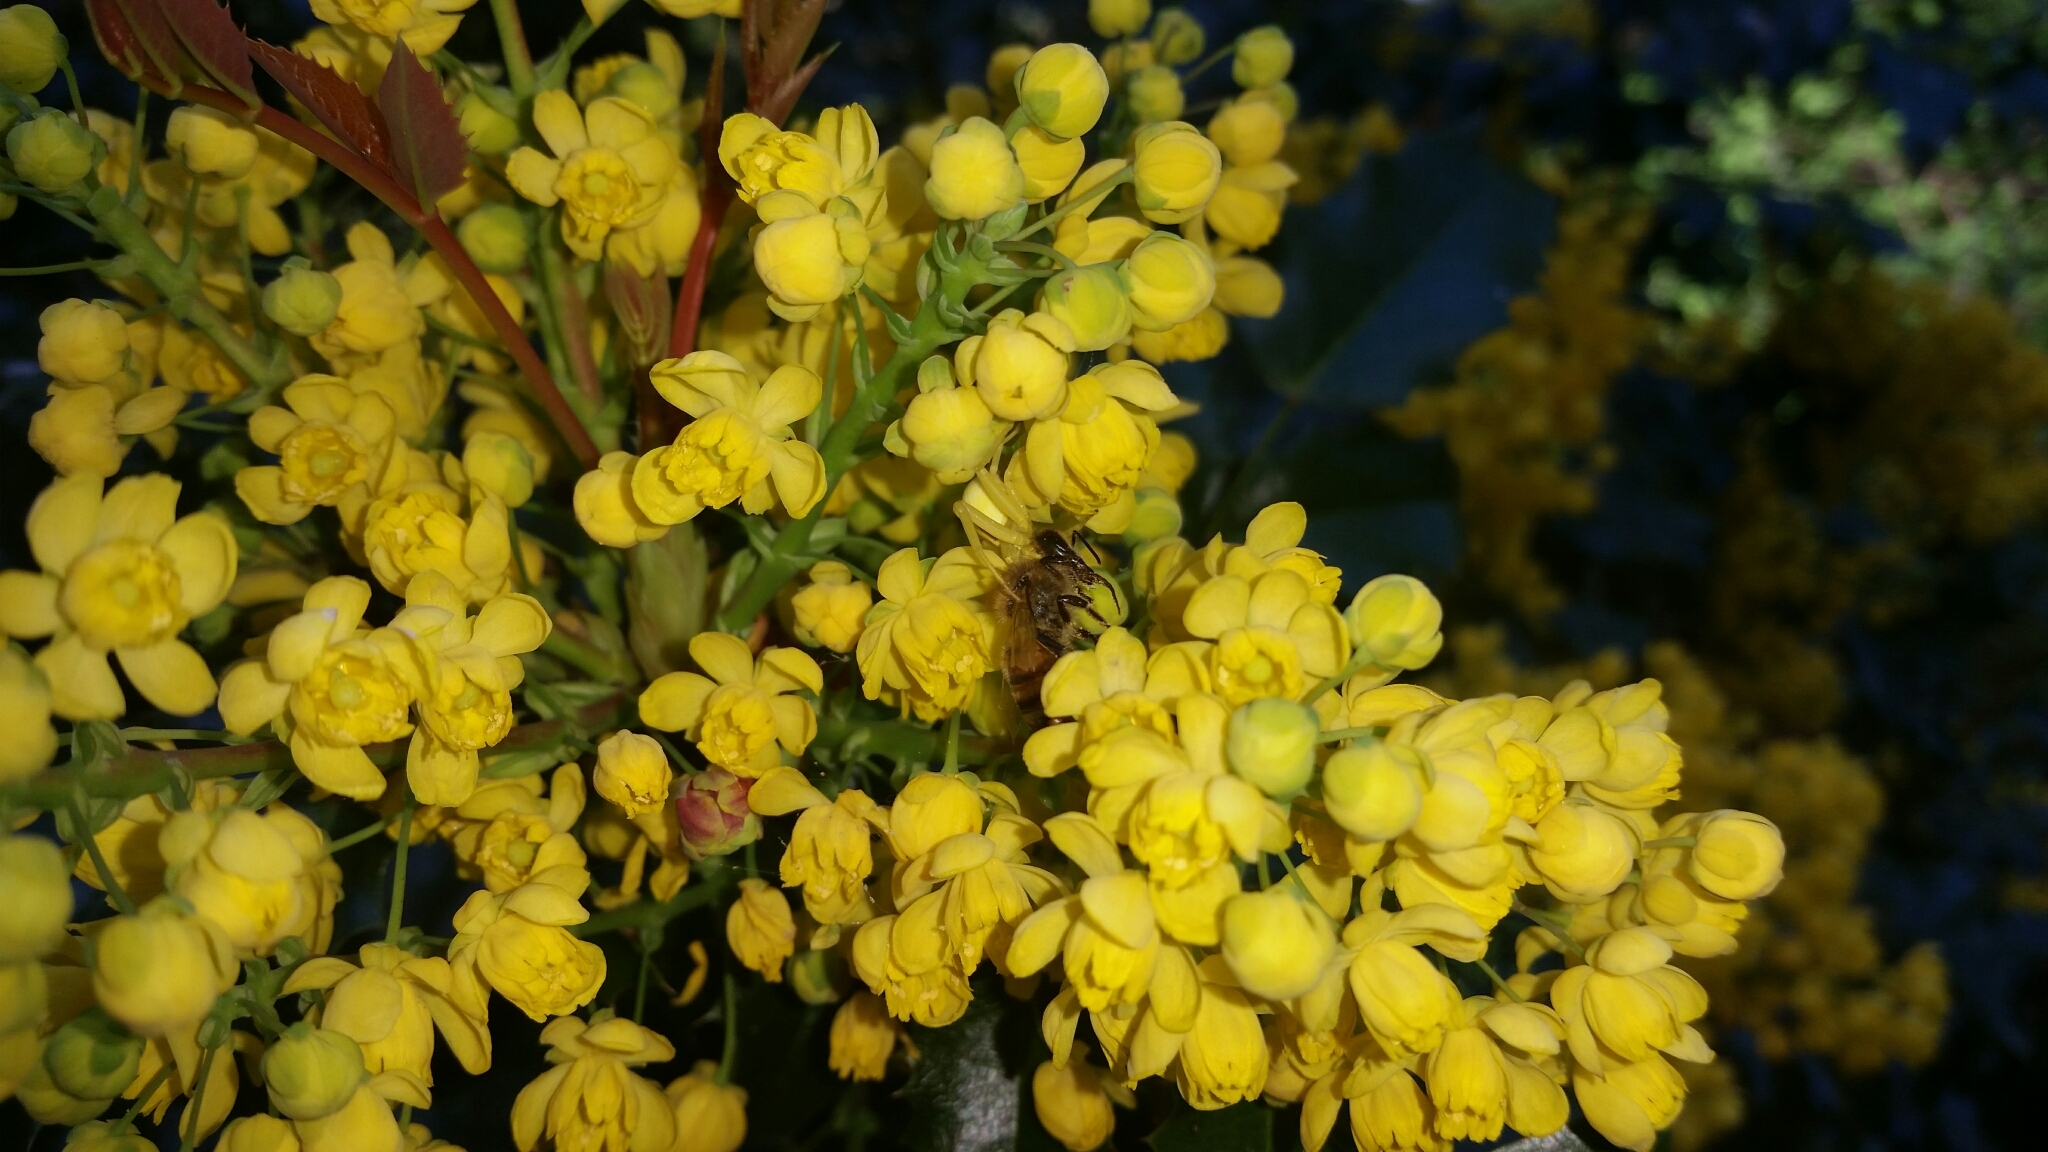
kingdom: Animalia
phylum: Arthropoda
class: Insecta
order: Hymenoptera
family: Apidae
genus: Apis
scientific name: Apis mellifera
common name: Honey bee
